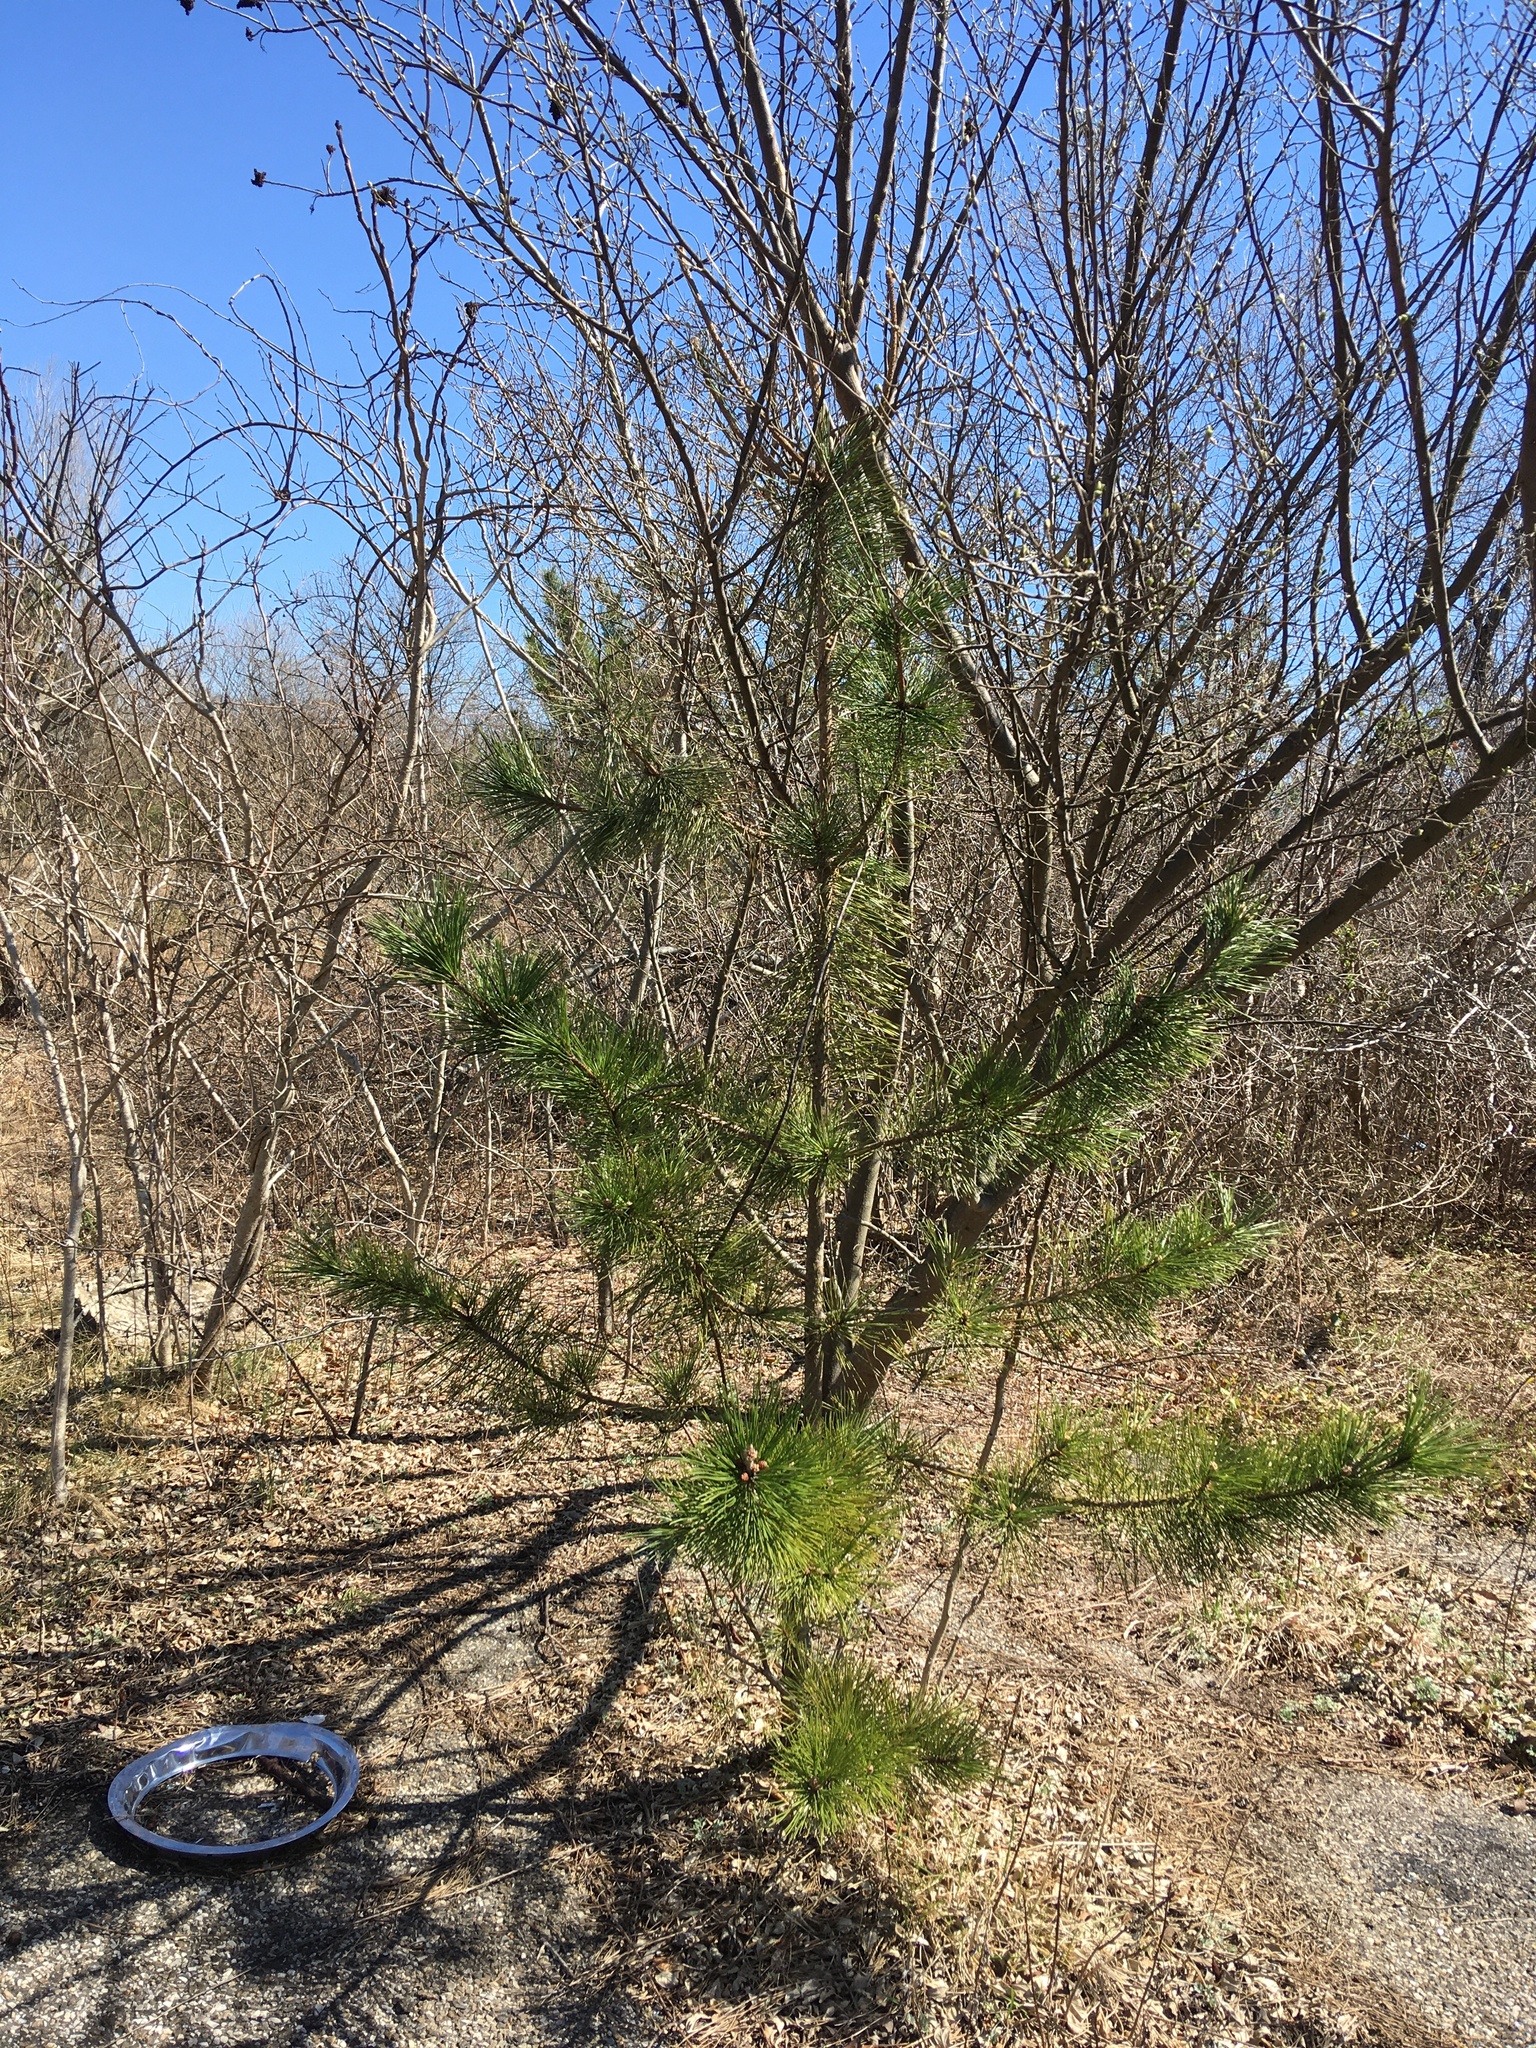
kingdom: Plantae
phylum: Tracheophyta
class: Pinopsida
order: Pinales
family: Pinaceae
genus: Pinus
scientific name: Pinus resinosa
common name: Norway pine
